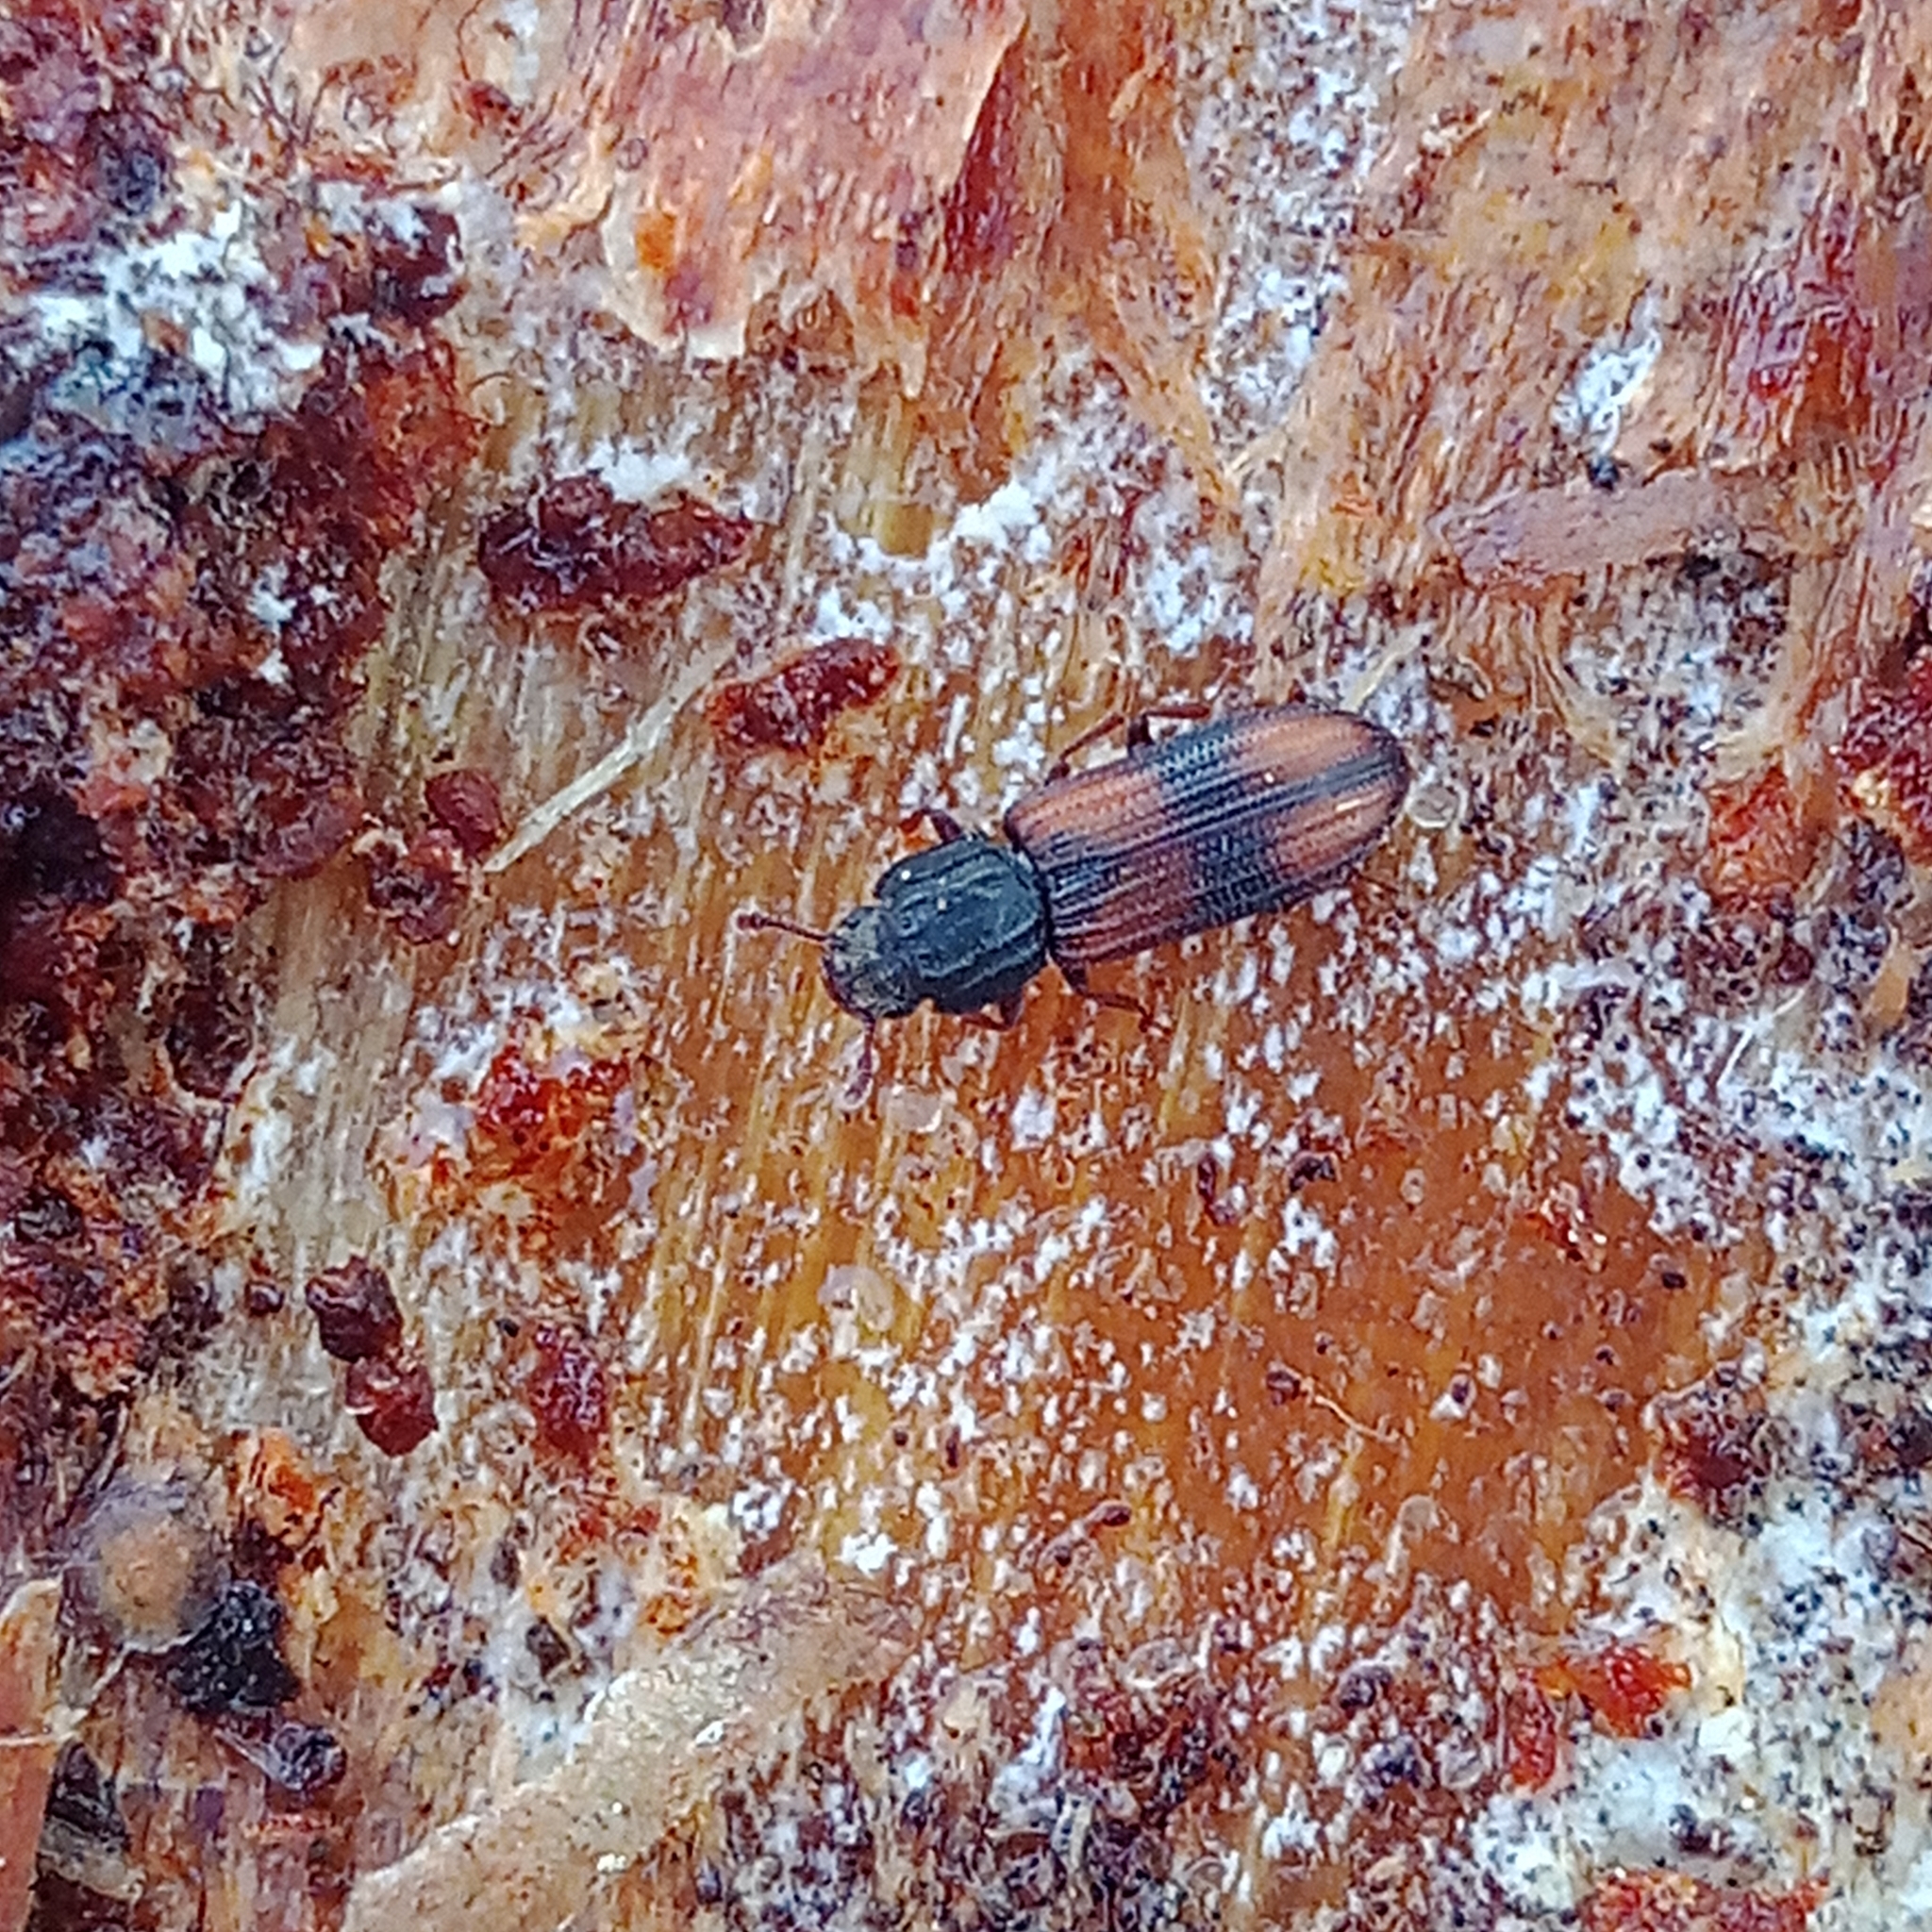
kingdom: Animalia
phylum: Arthropoda
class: Insecta
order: Coleoptera
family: Zopheridae
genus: Bitoma
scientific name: Bitoma crenata
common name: Bark beetle
